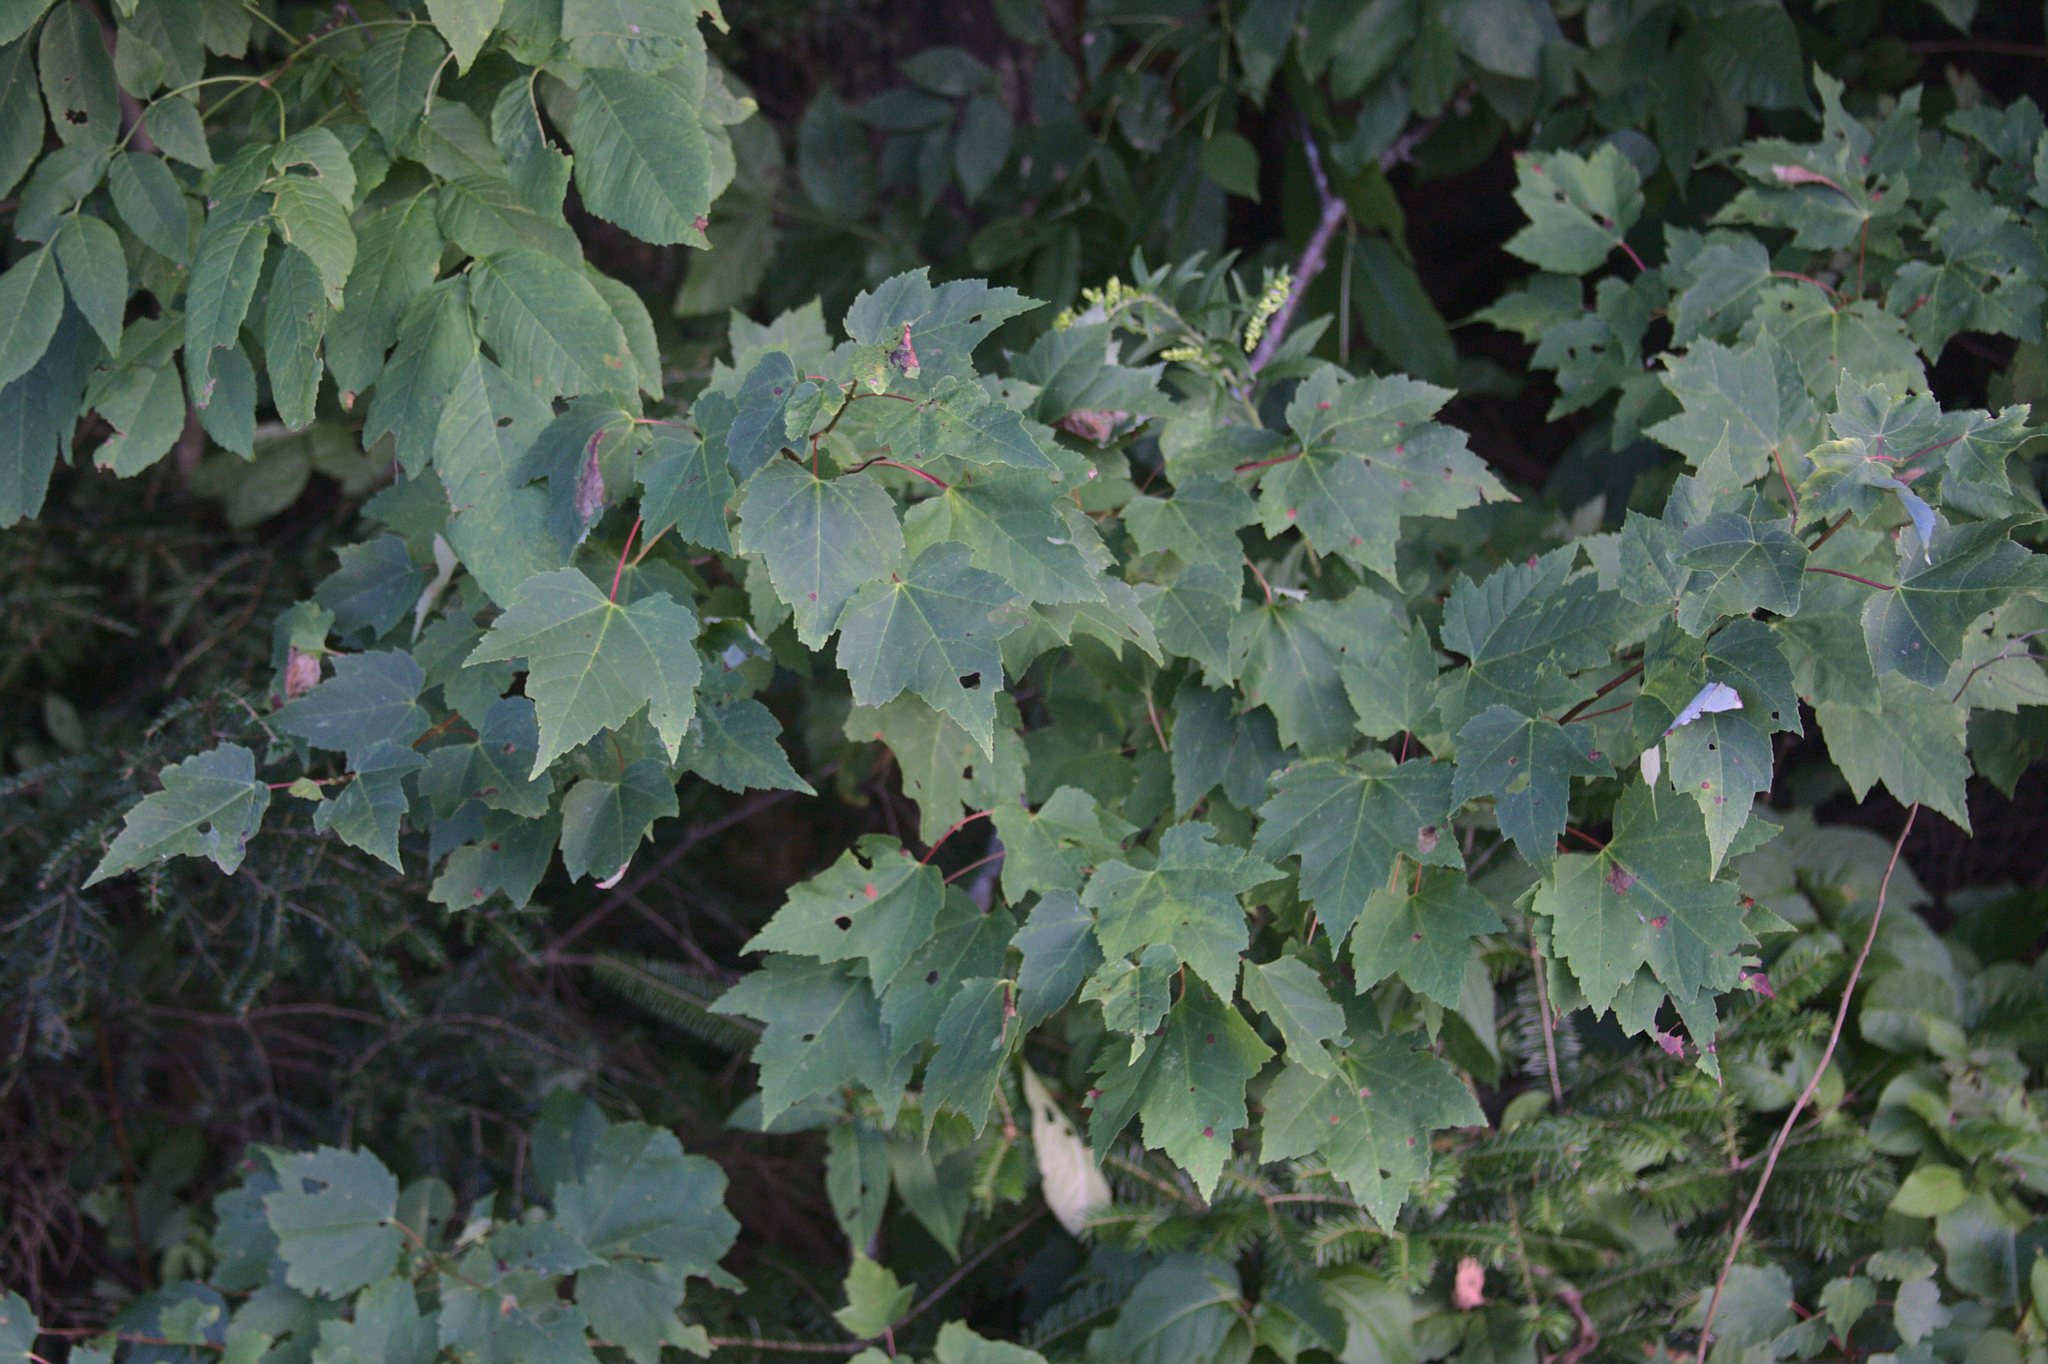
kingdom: Plantae
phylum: Tracheophyta
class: Magnoliopsida
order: Sapindales
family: Sapindaceae
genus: Acer
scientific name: Acer rubrum
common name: Red maple
